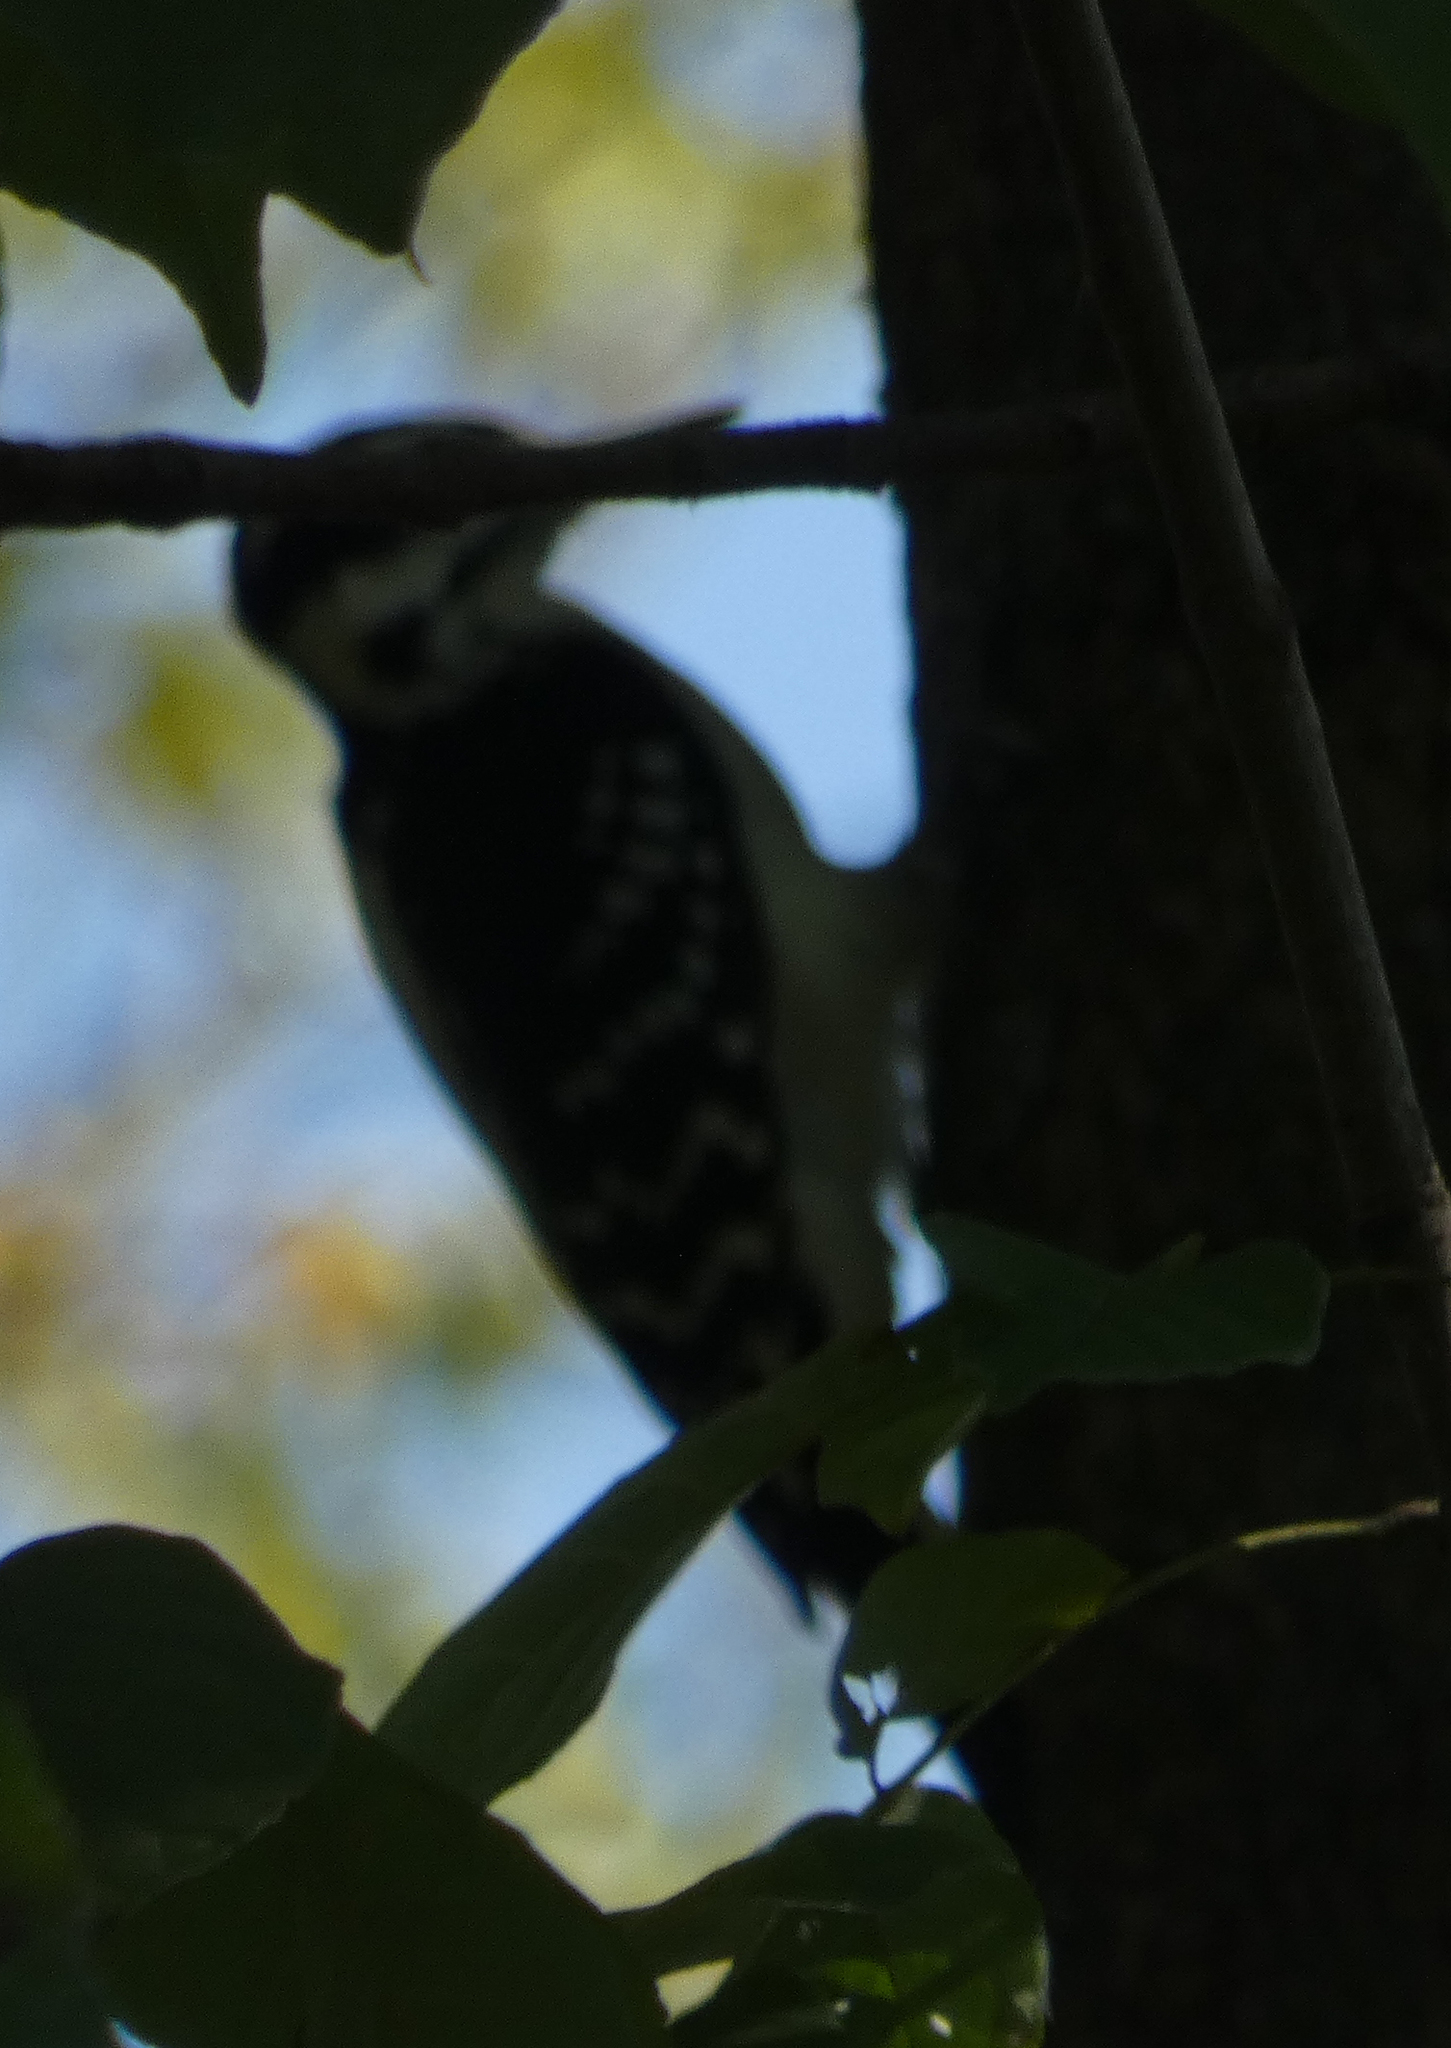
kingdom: Animalia
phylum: Chordata
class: Aves
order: Piciformes
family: Picidae
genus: Leuconotopicus
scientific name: Leuconotopicus villosus
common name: Hairy woodpecker
